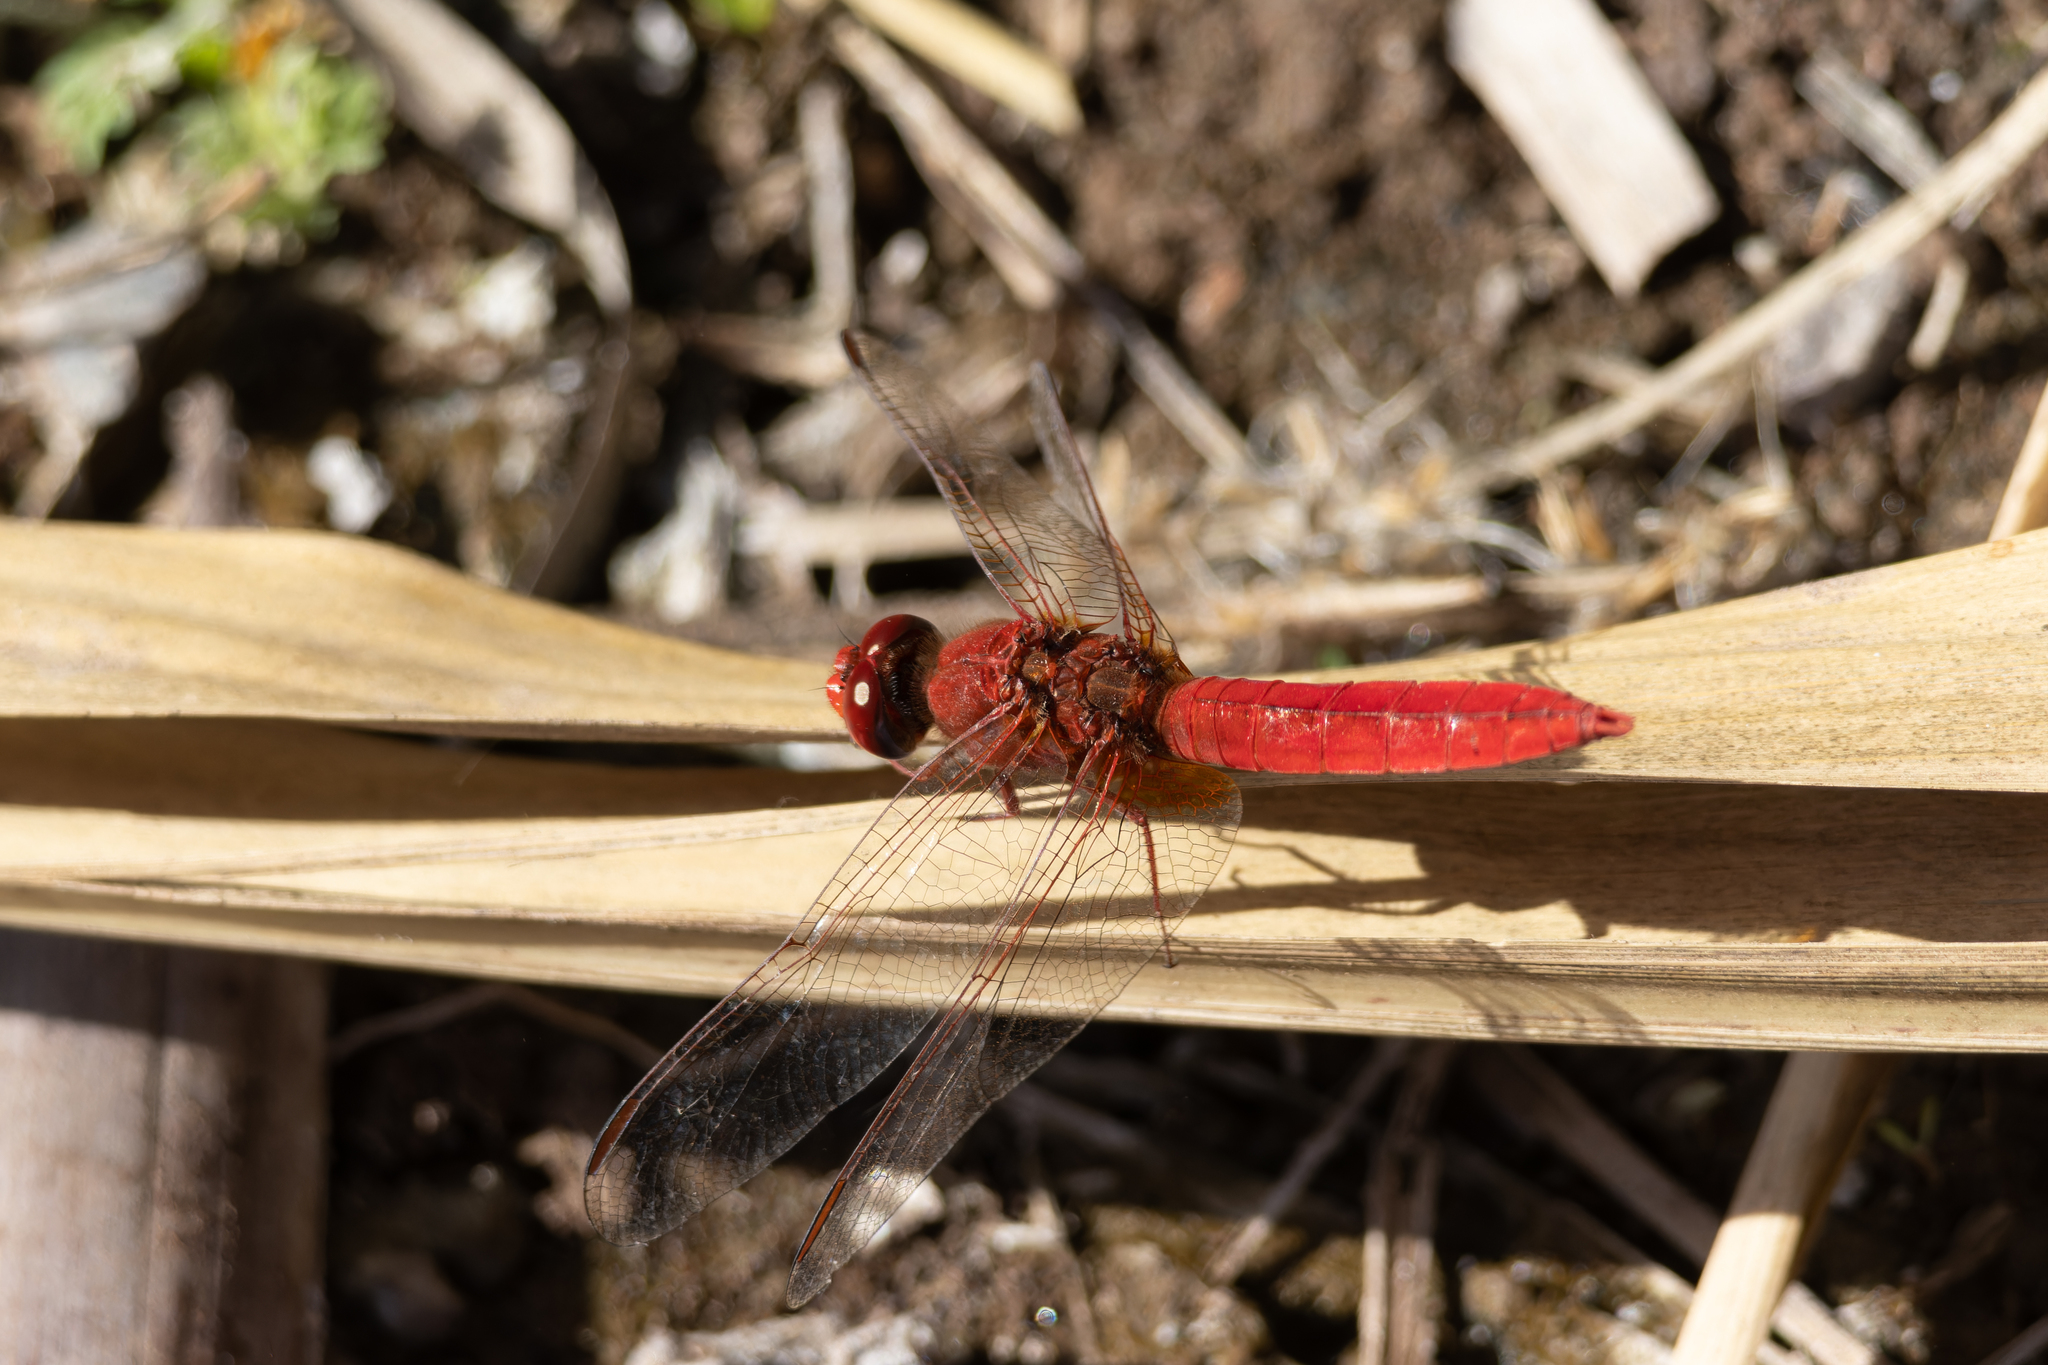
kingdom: Animalia
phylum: Arthropoda
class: Insecta
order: Odonata
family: Libellulidae
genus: Crocothemis
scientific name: Crocothemis erythraea
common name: Scarlet dragonfly
